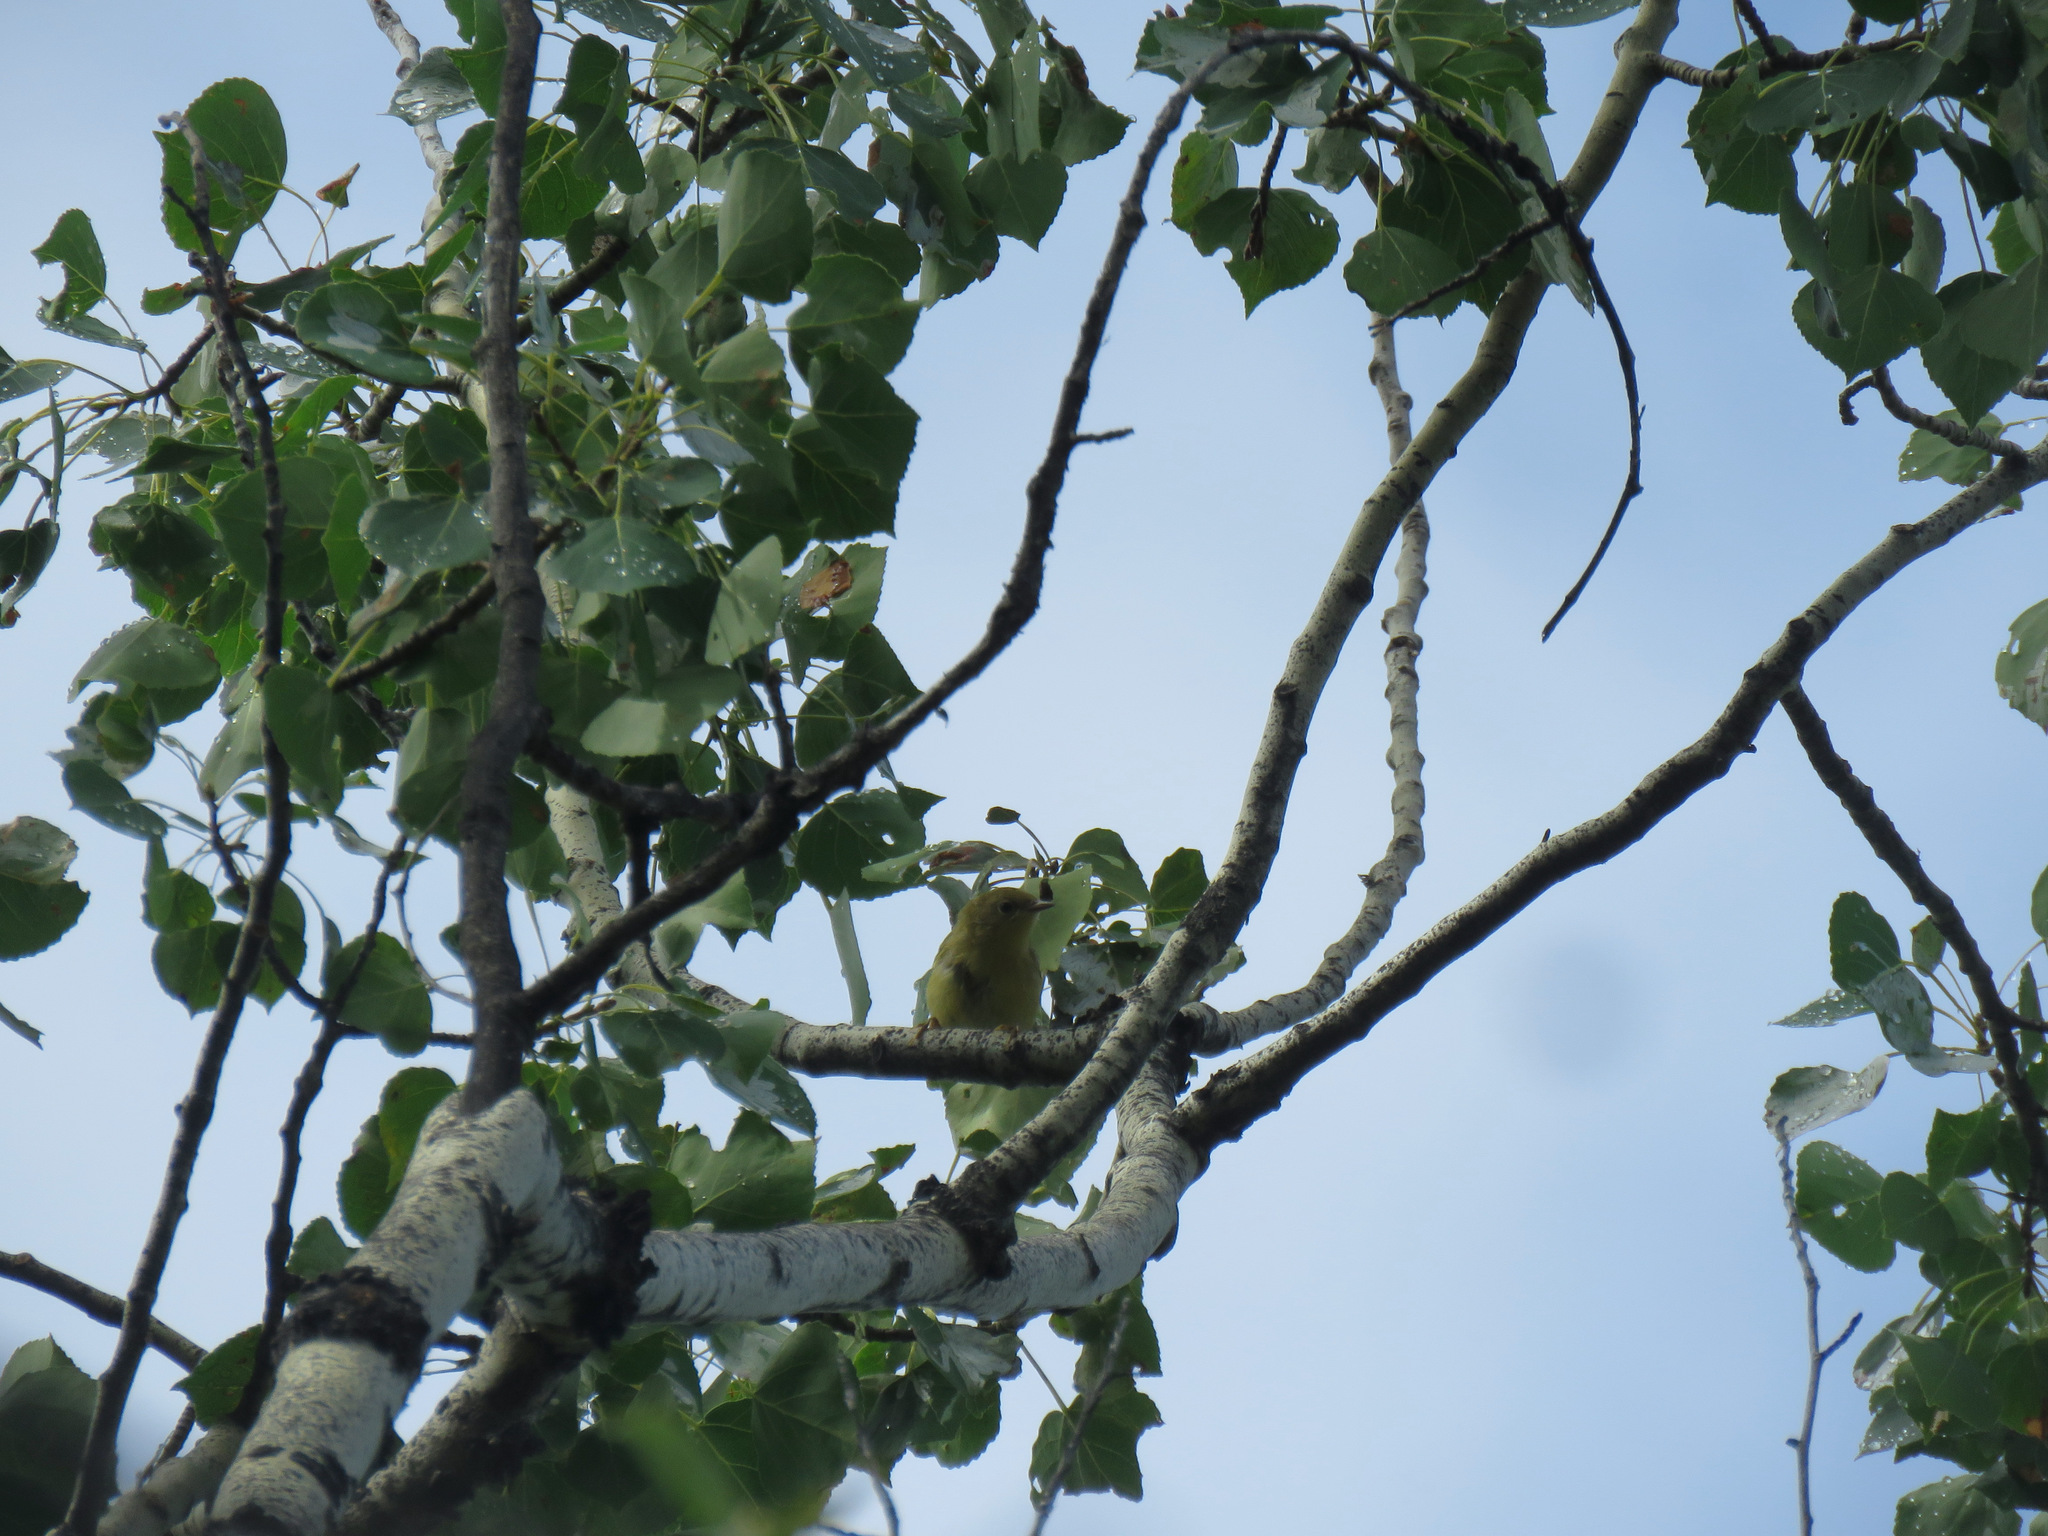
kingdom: Animalia
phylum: Chordata
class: Aves
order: Passeriformes
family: Parulidae
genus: Setophaga
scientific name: Setophaga petechia
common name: Yellow warbler
